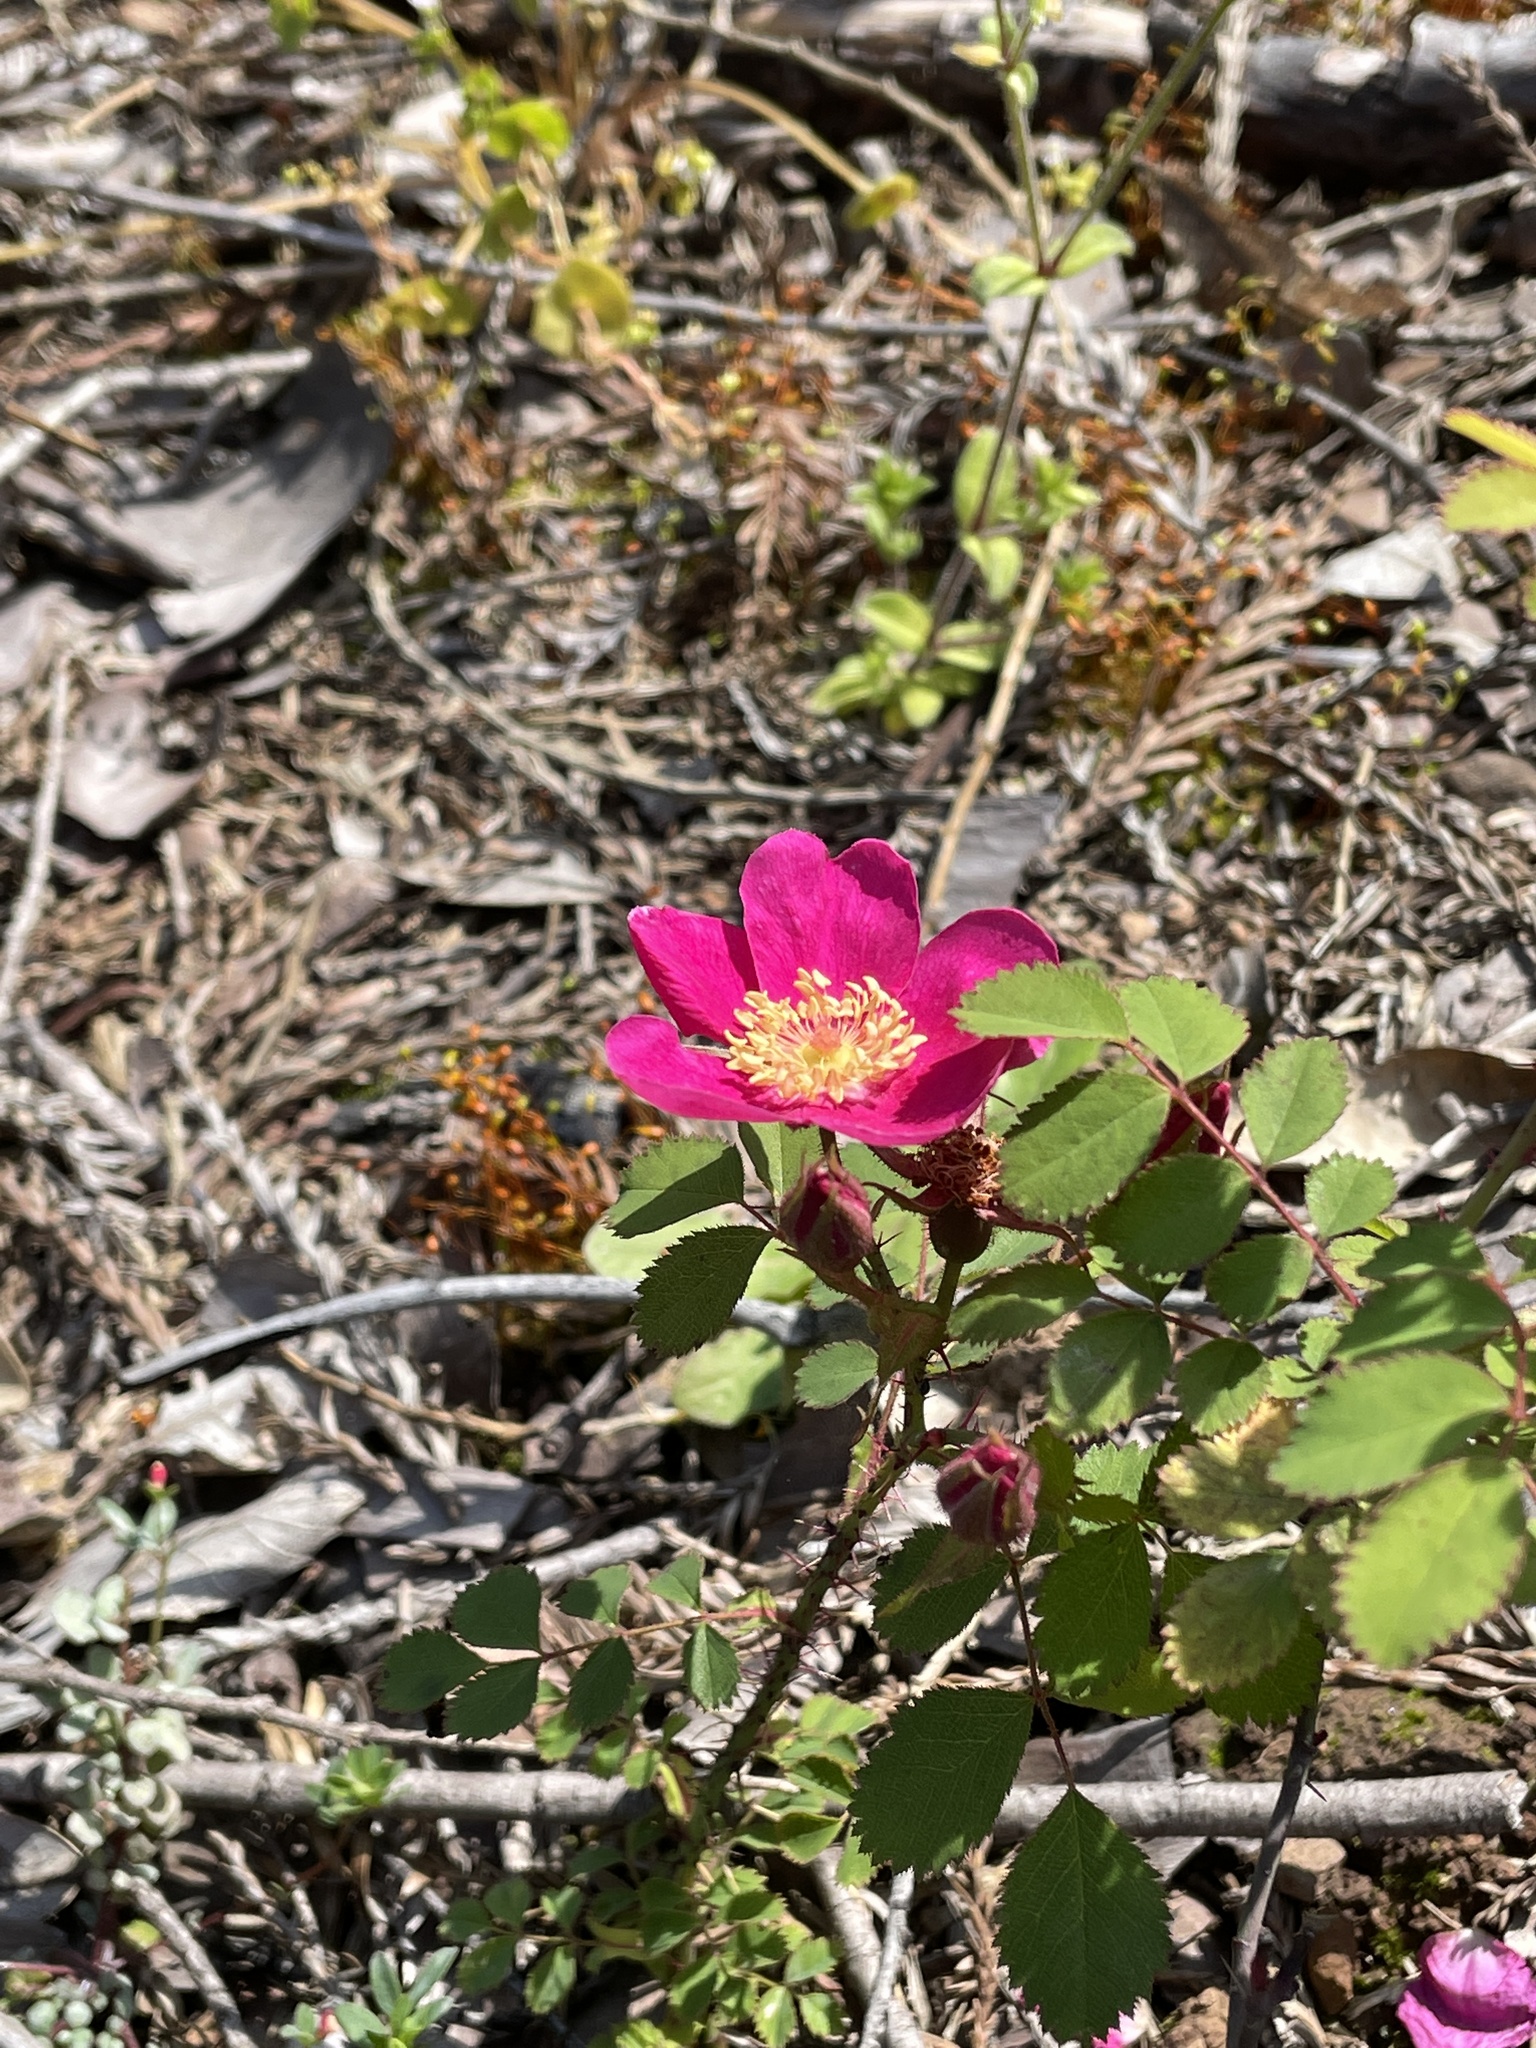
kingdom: Plantae
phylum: Tracheophyta
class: Magnoliopsida
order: Rosales
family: Rosaceae
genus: Rosa
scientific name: Rosa spithamea
